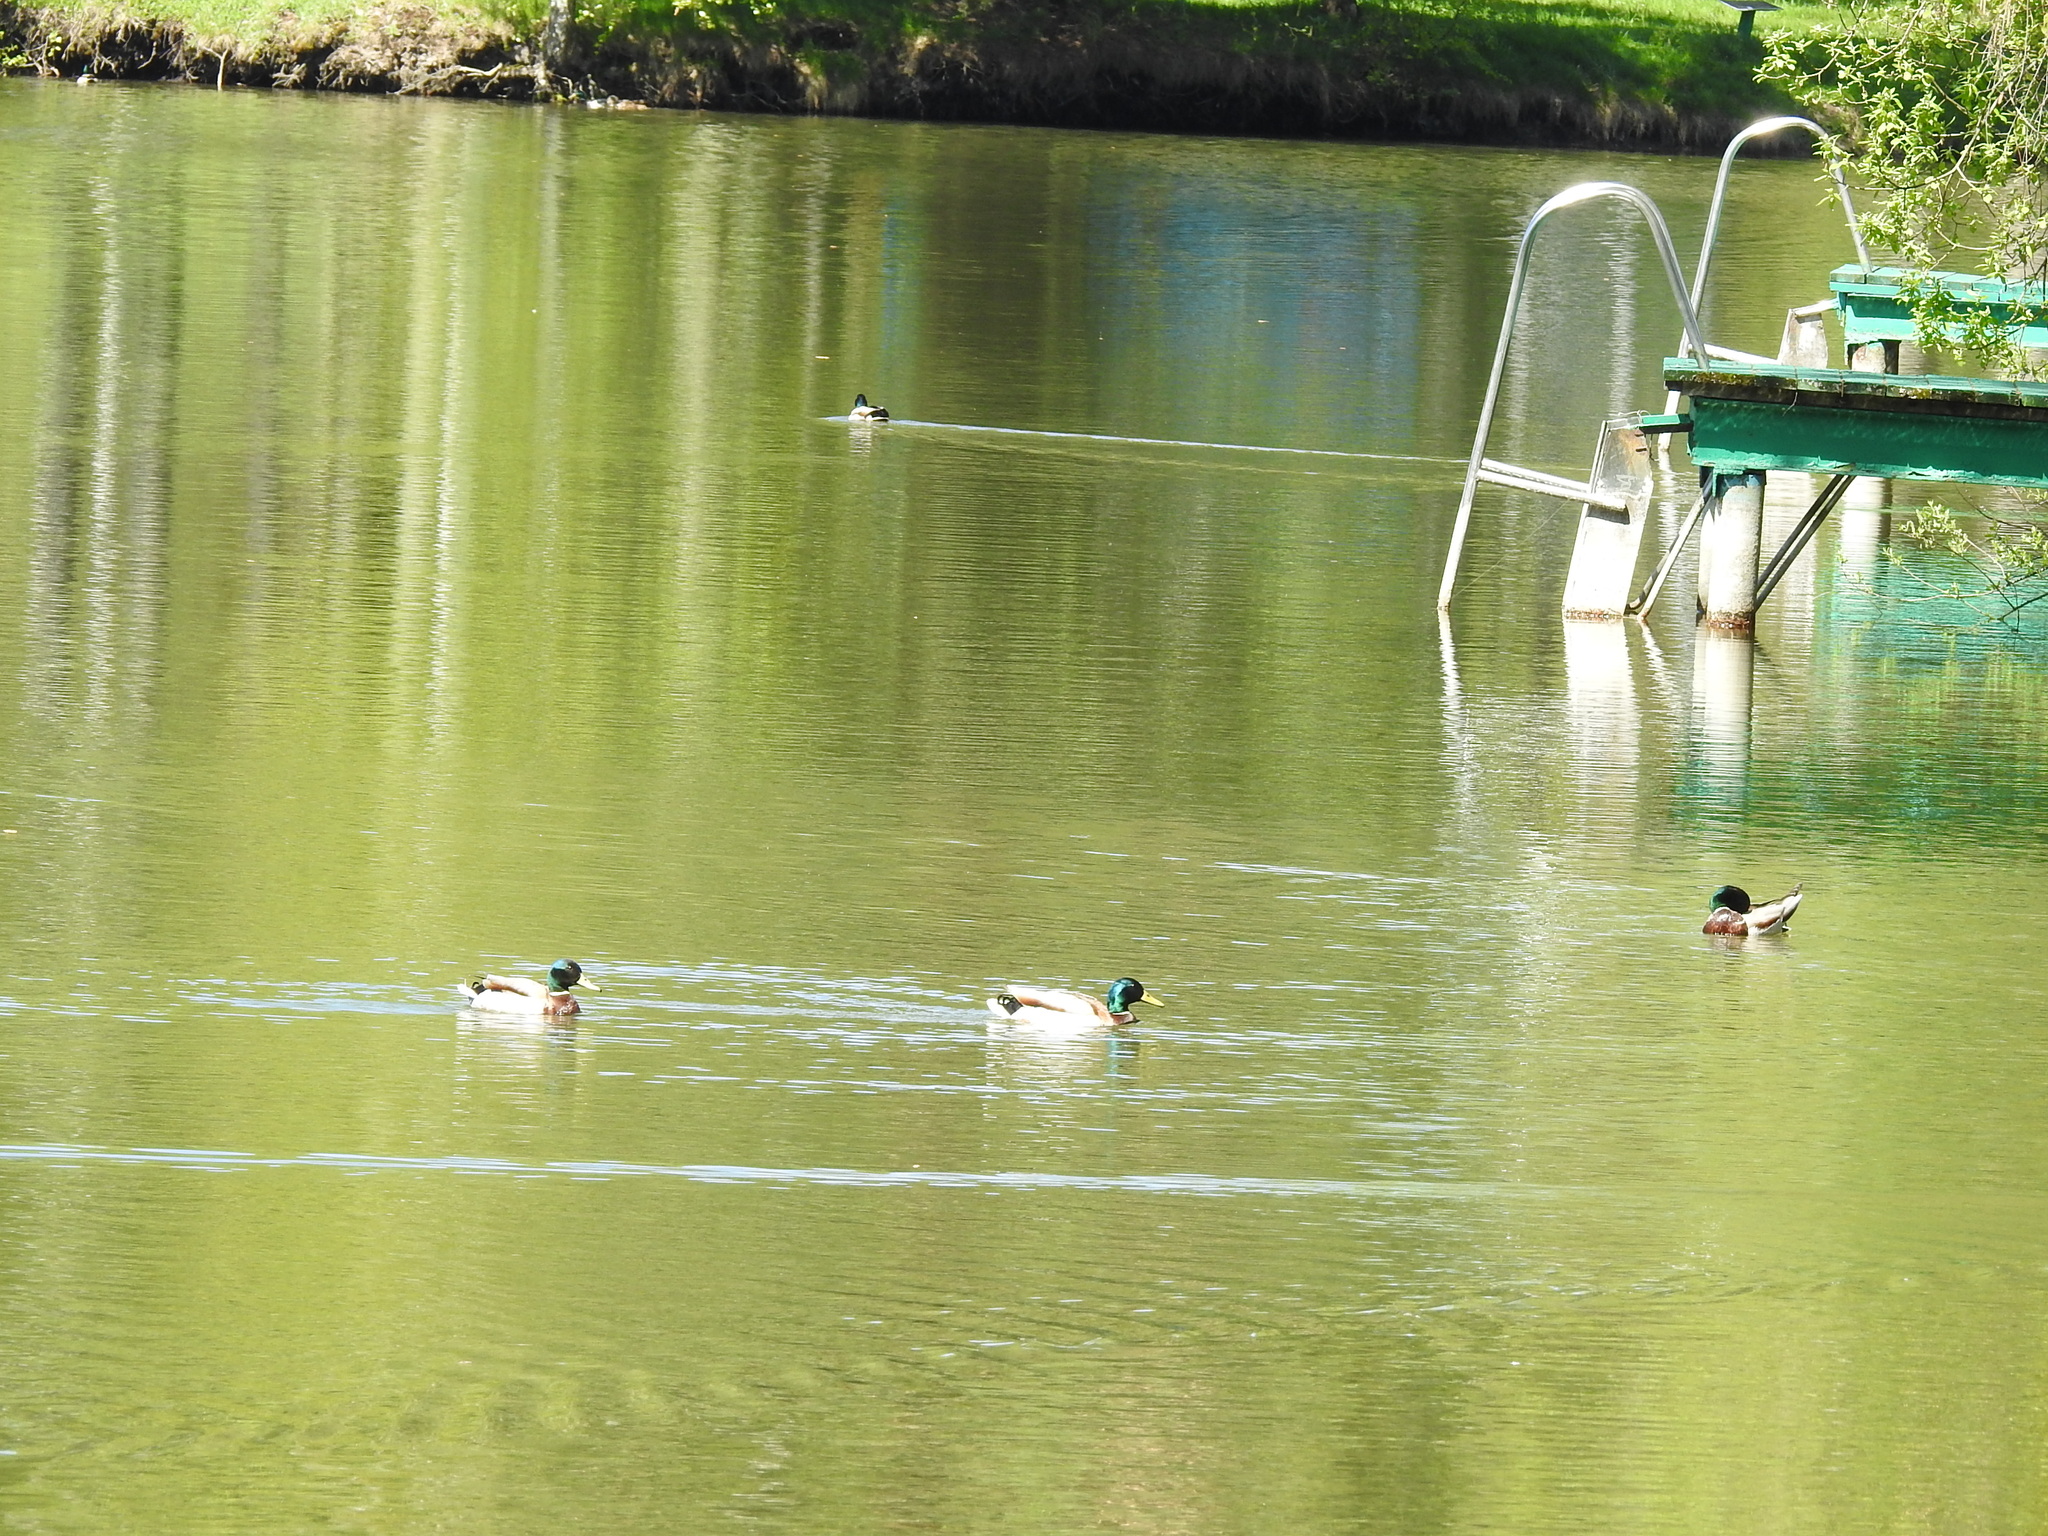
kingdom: Animalia
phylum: Chordata
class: Aves
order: Anseriformes
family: Anatidae
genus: Anas
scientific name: Anas platyrhynchos
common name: Mallard
